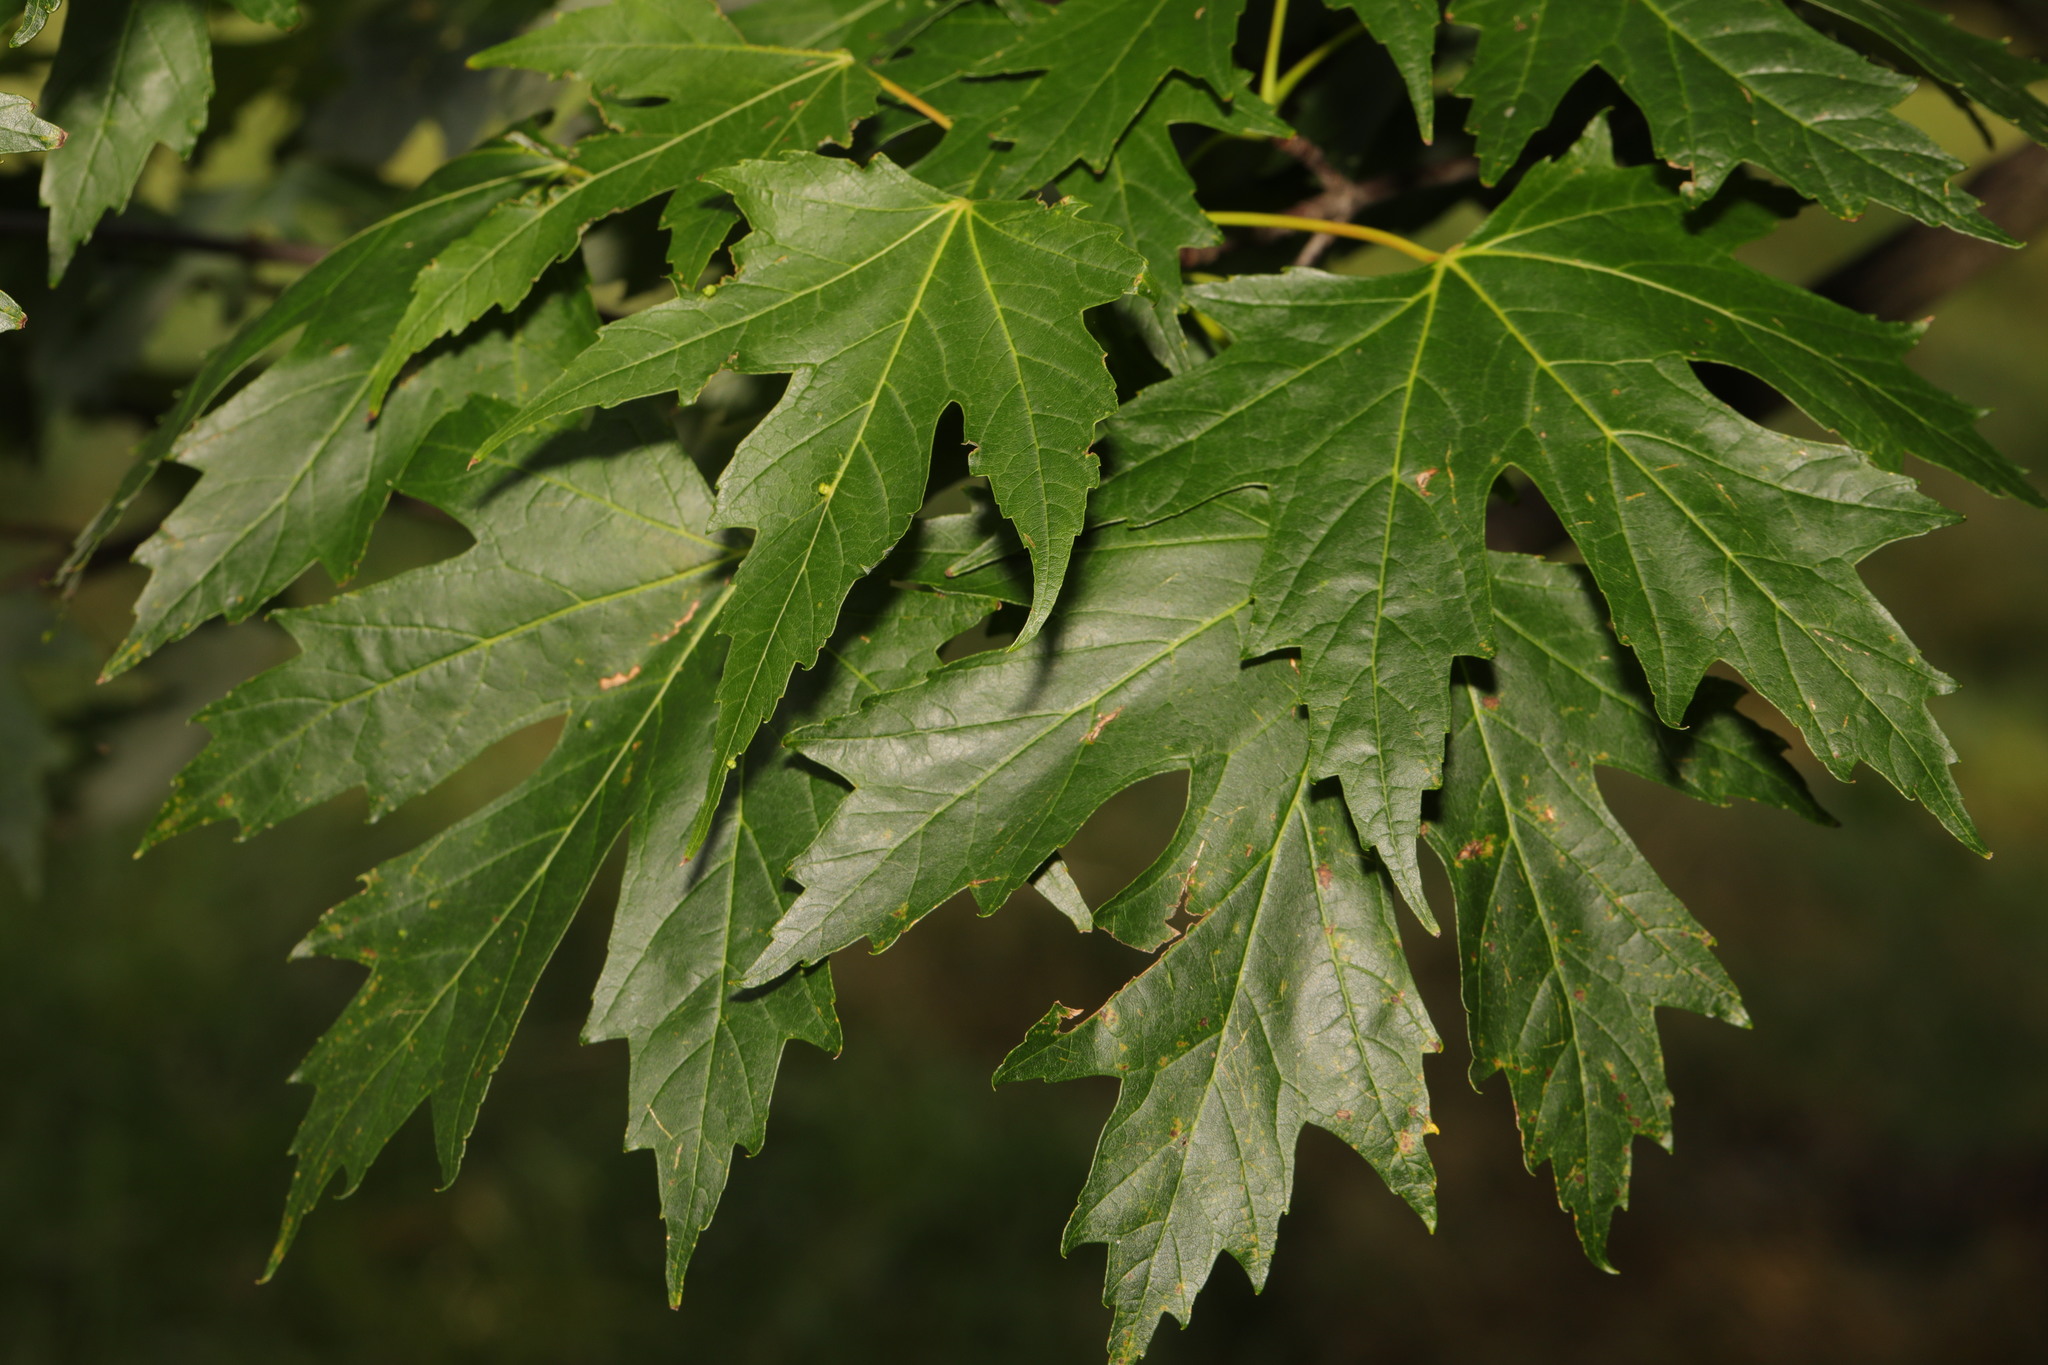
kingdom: Plantae
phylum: Tracheophyta
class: Magnoliopsida
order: Sapindales
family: Sapindaceae
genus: Acer
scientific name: Acer saccharinum
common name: Silver maple
